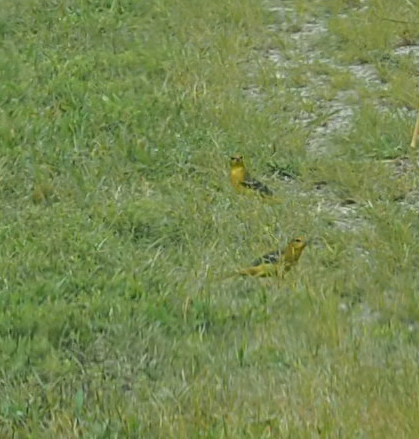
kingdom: Animalia
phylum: Chordata
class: Aves
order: Passeriformes
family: Icteridae
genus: Icterus
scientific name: Icterus spurius
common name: Orchard oriole
